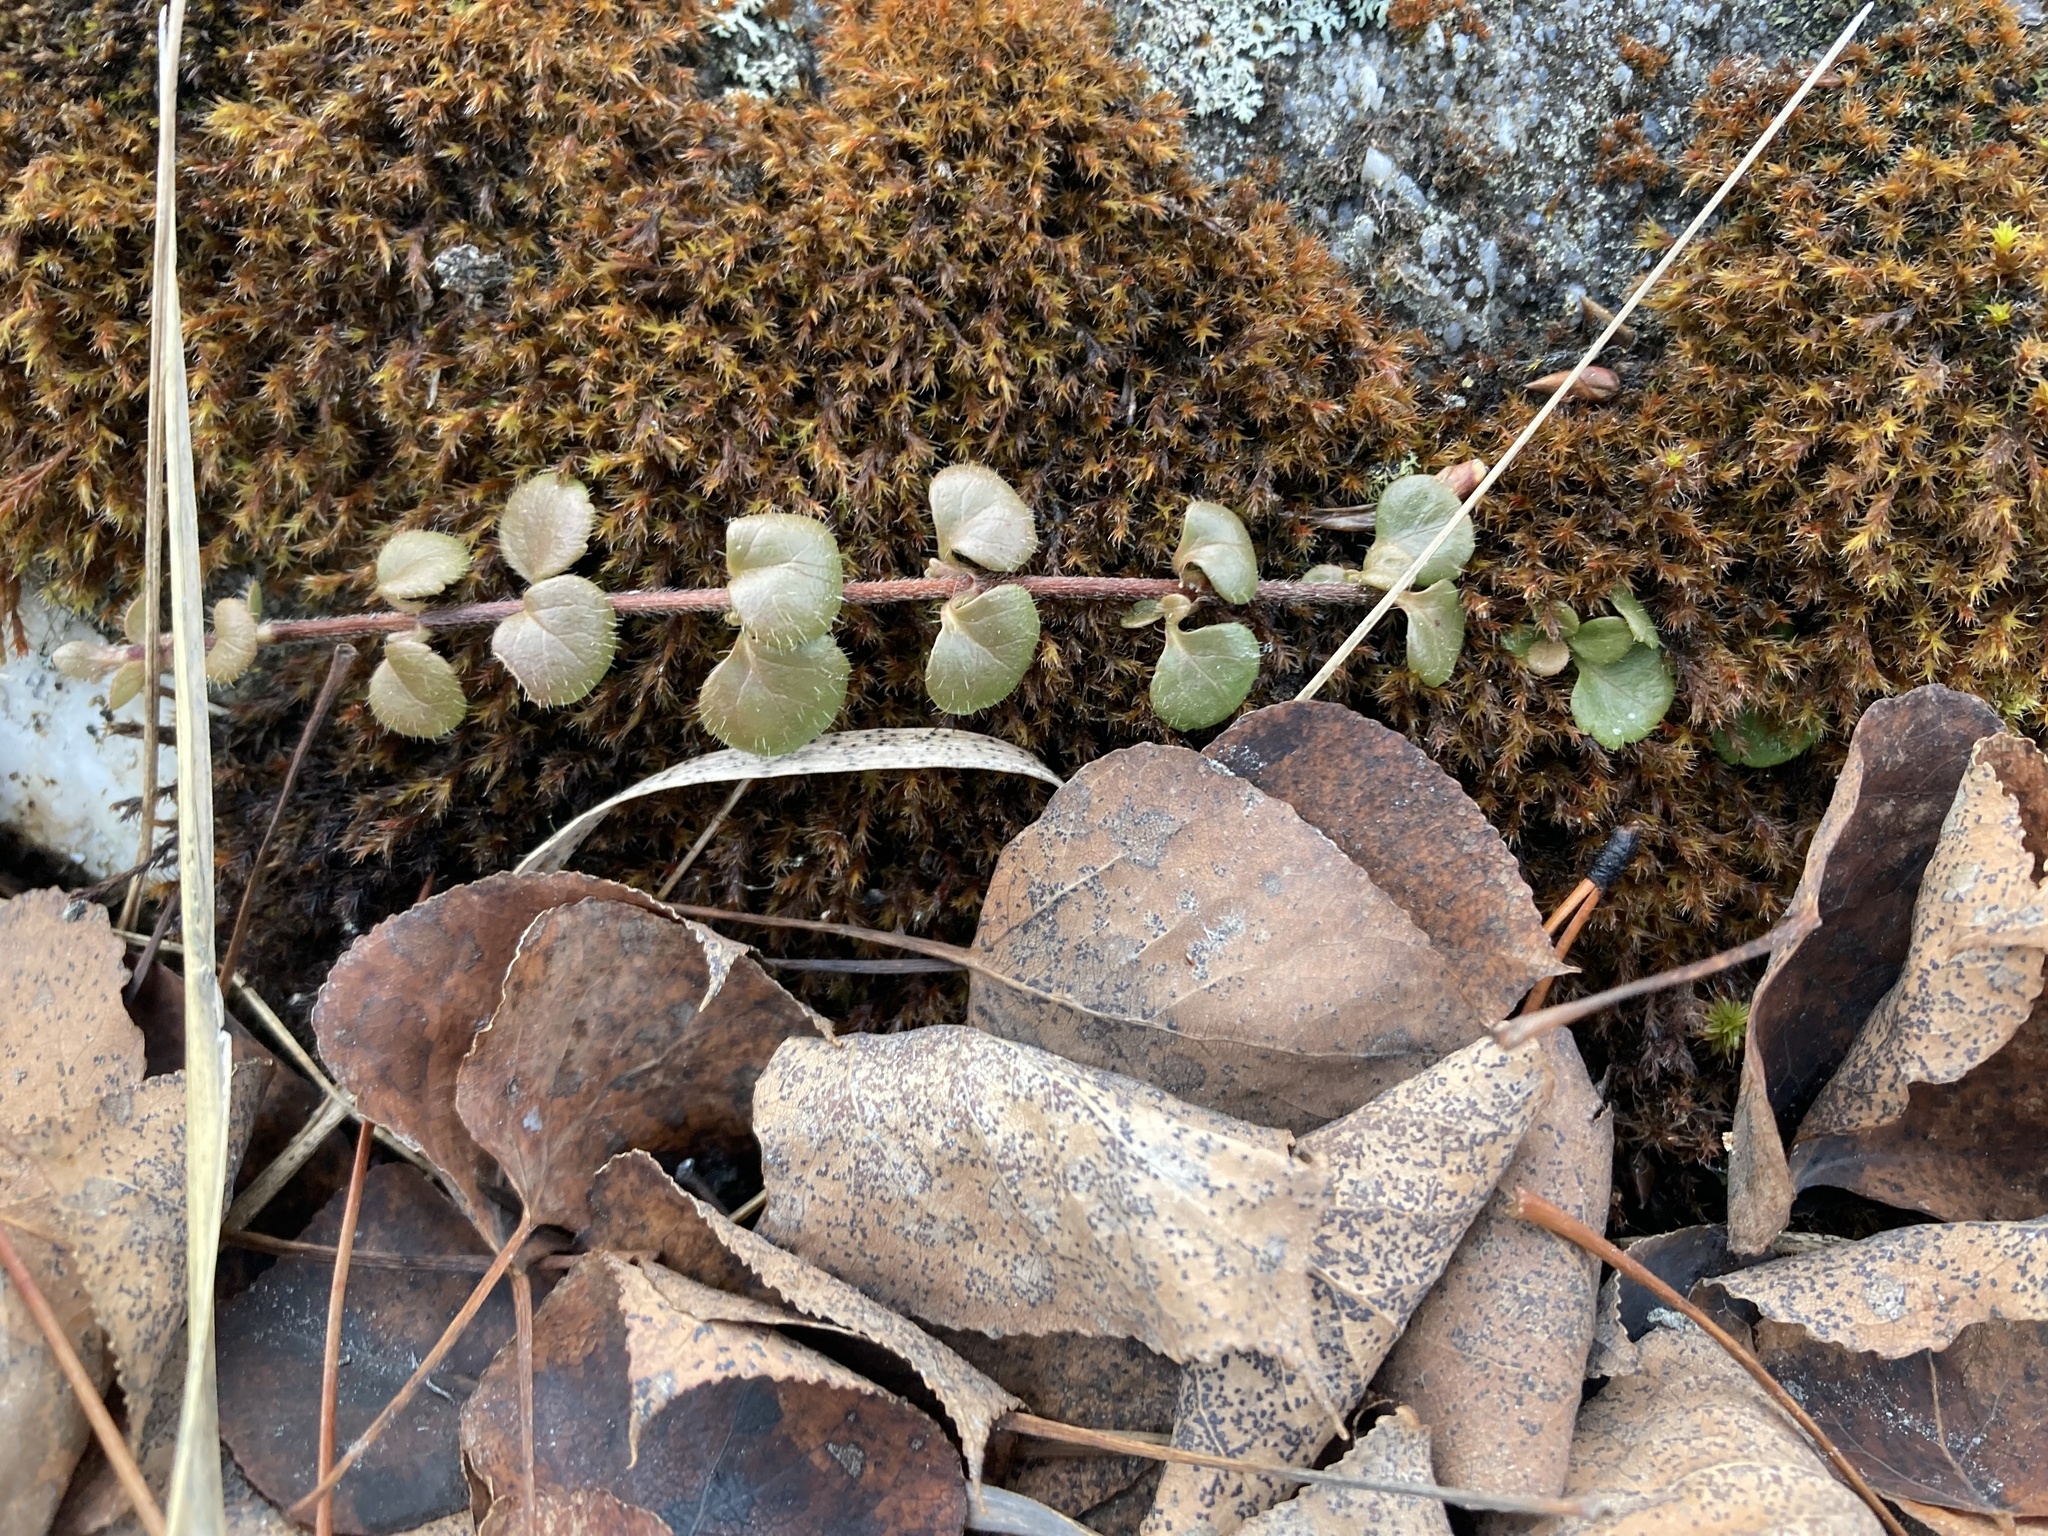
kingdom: Plantae
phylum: Tracheophyta
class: Magnoliopsida
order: Dipsacales
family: Caprifoliaceae
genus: Linnaea
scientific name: Linnaea borealis
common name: Twinflower
